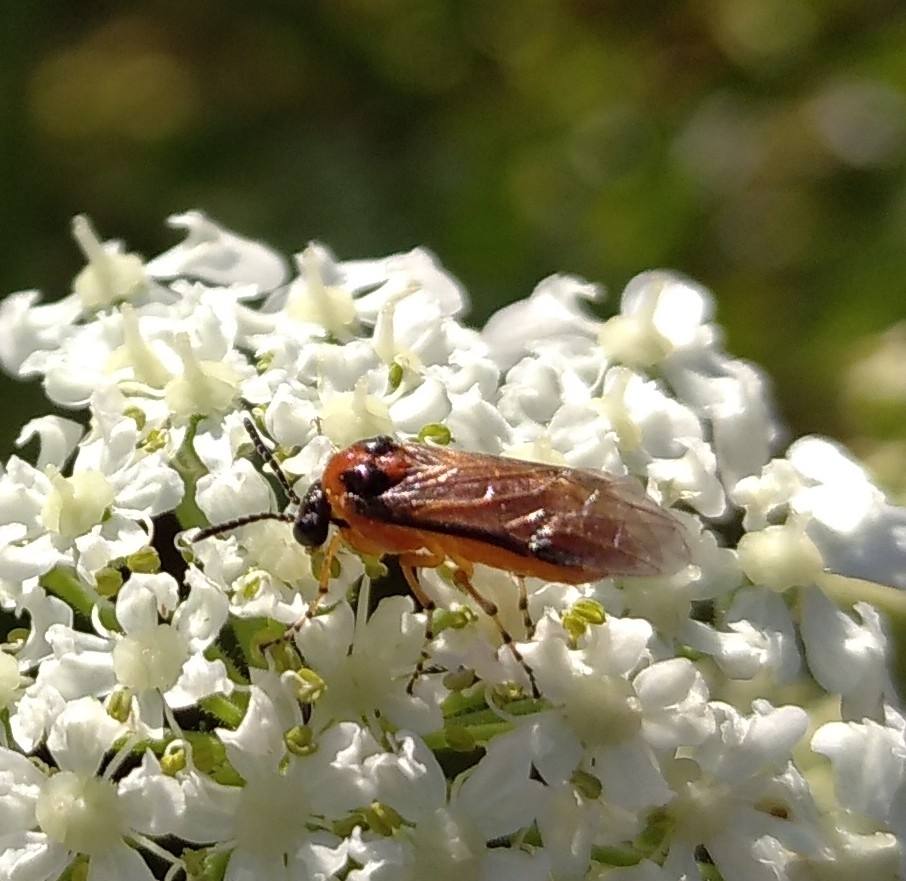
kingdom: Animalia
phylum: Arthropoda
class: Insecta
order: Hymenoptera
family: Tenthredinidae
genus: Athalia
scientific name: Athalia rosae
